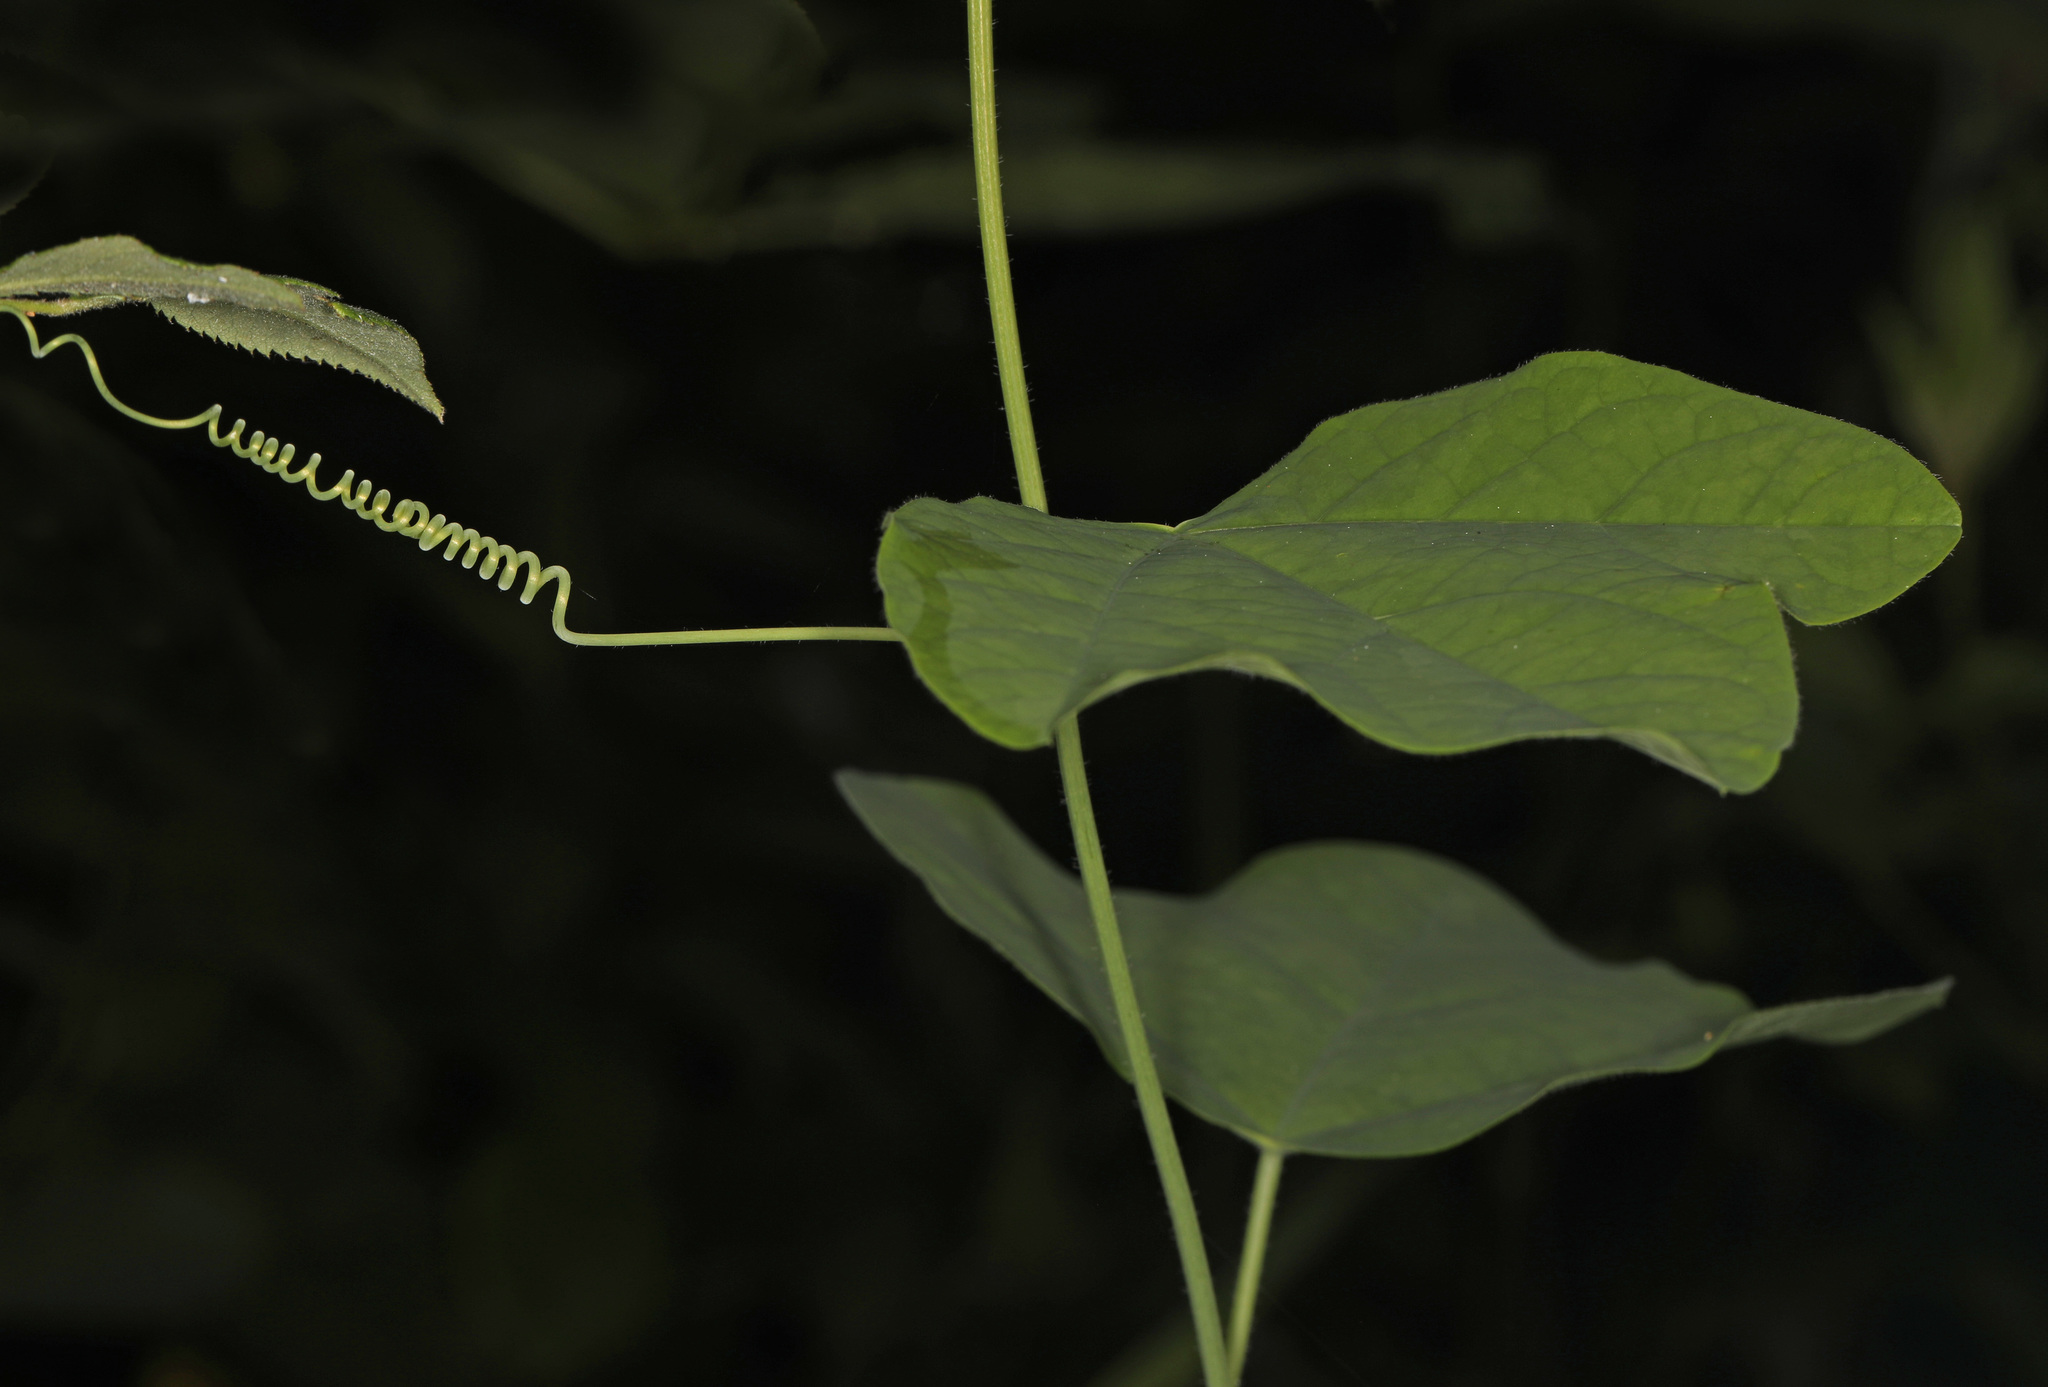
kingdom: Plantae
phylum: Tracheophyta
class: Magnoliopsida
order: Malpighiales
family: Passifloraceae
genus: Passiflora
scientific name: Passiflora lutea
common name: Yellow passionflower
